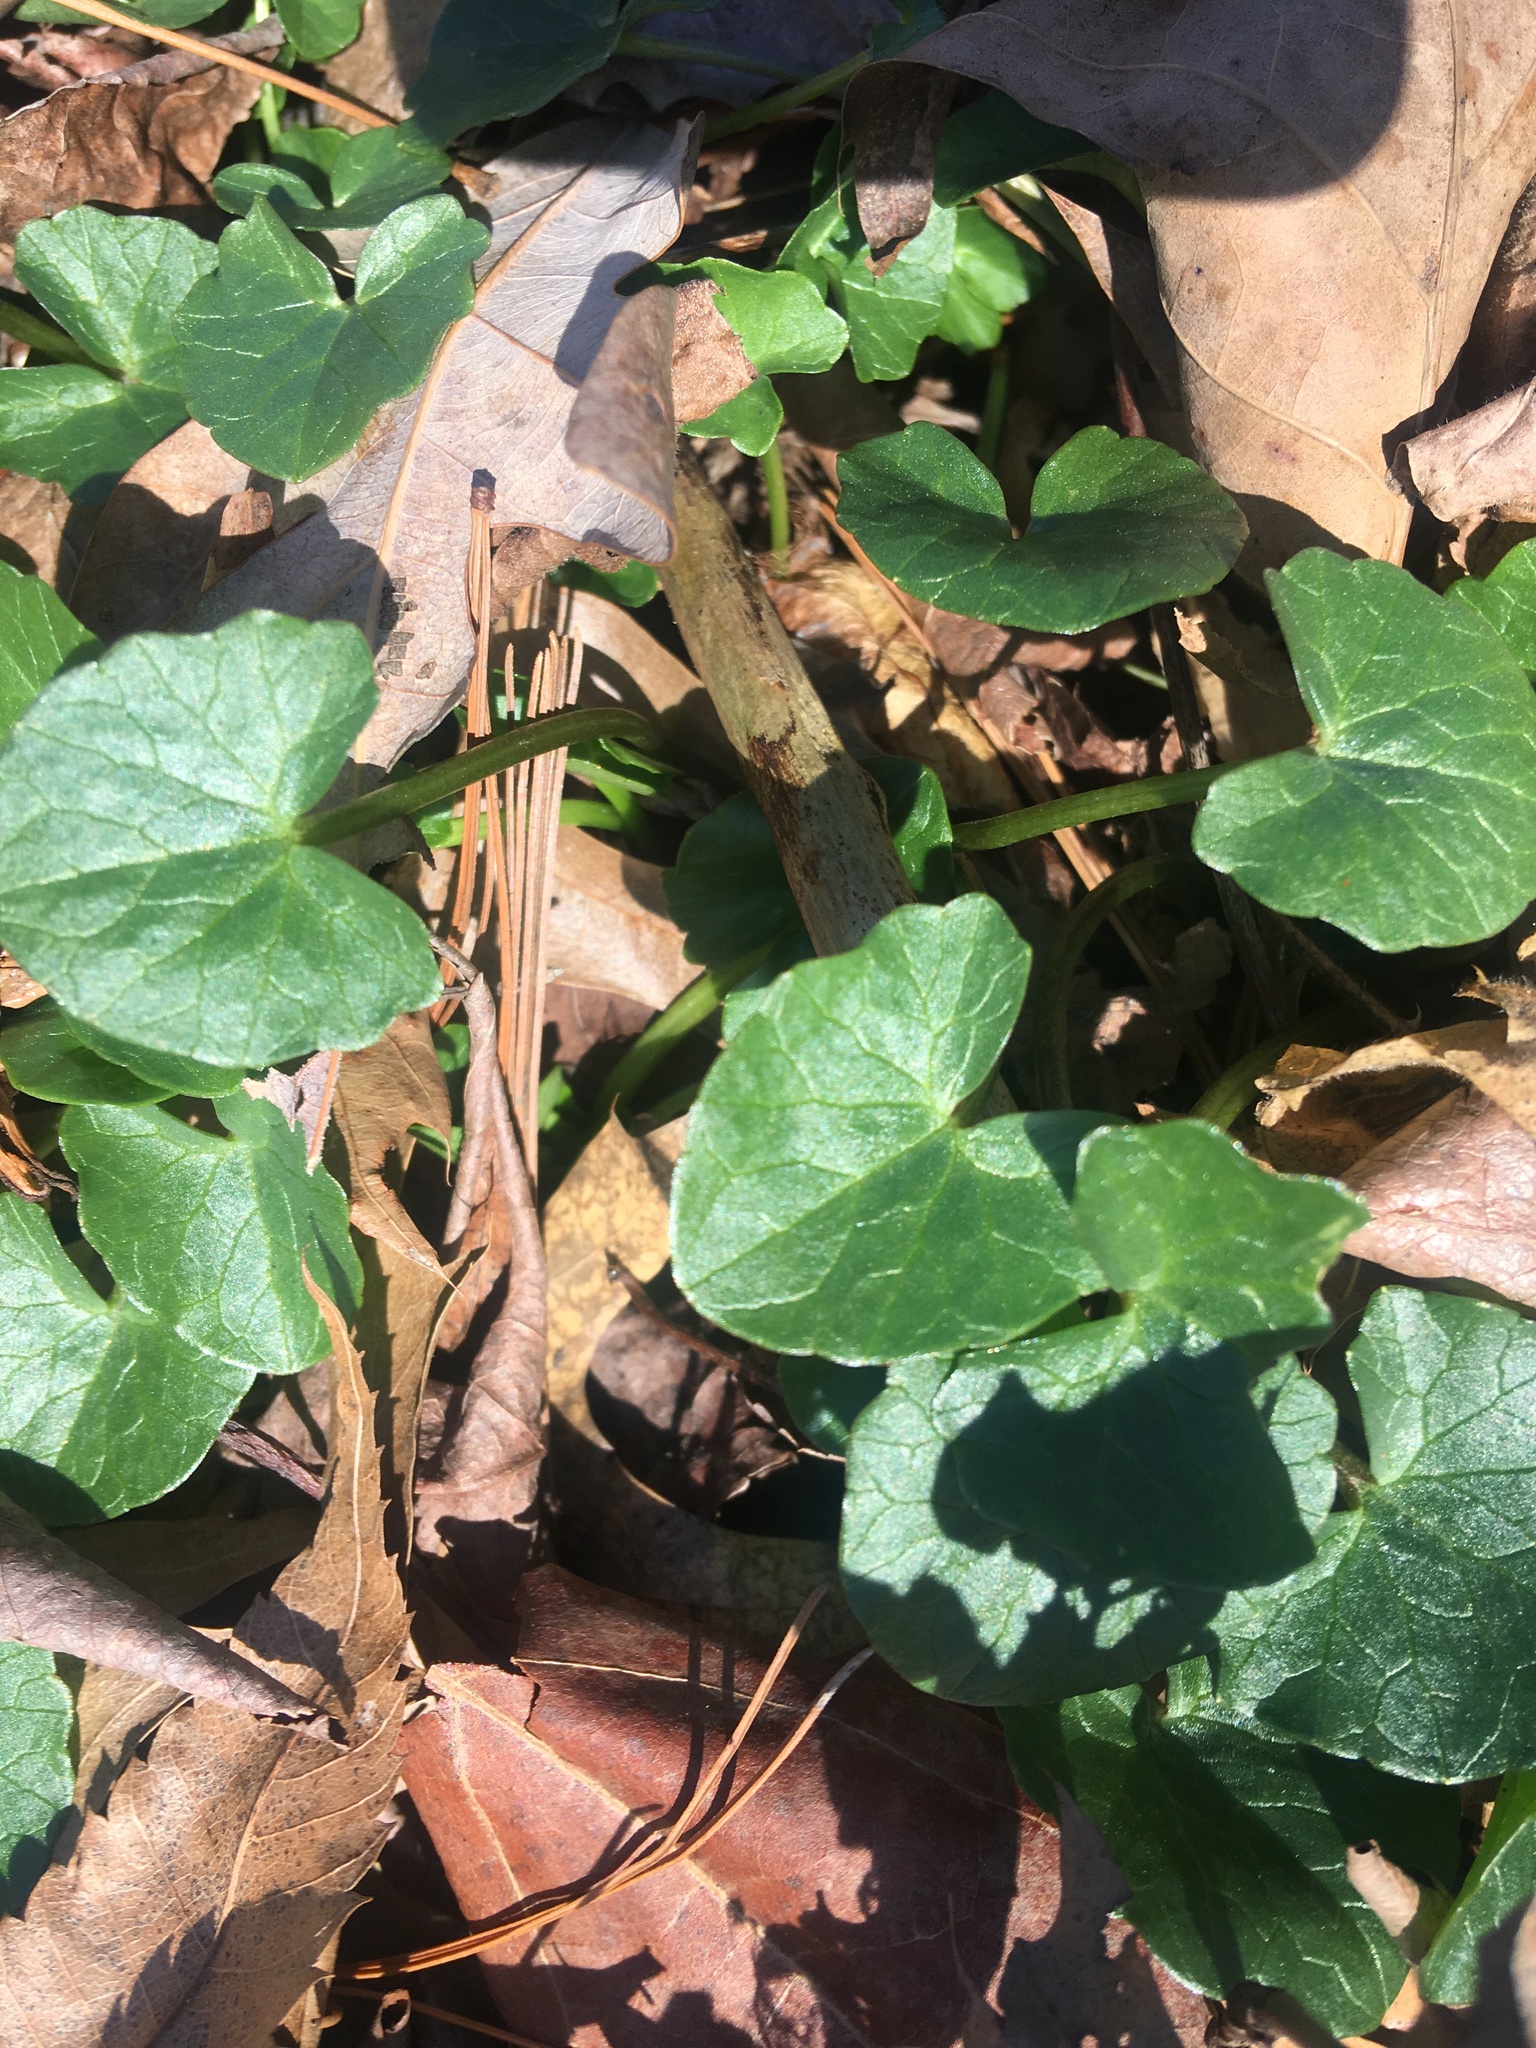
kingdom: Plantae
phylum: Tracheophyta
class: Magnoliopsida
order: Ranunculales
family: Ranunculaceae
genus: Ficaria
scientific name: Ficaria verna
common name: Lesser celandine
